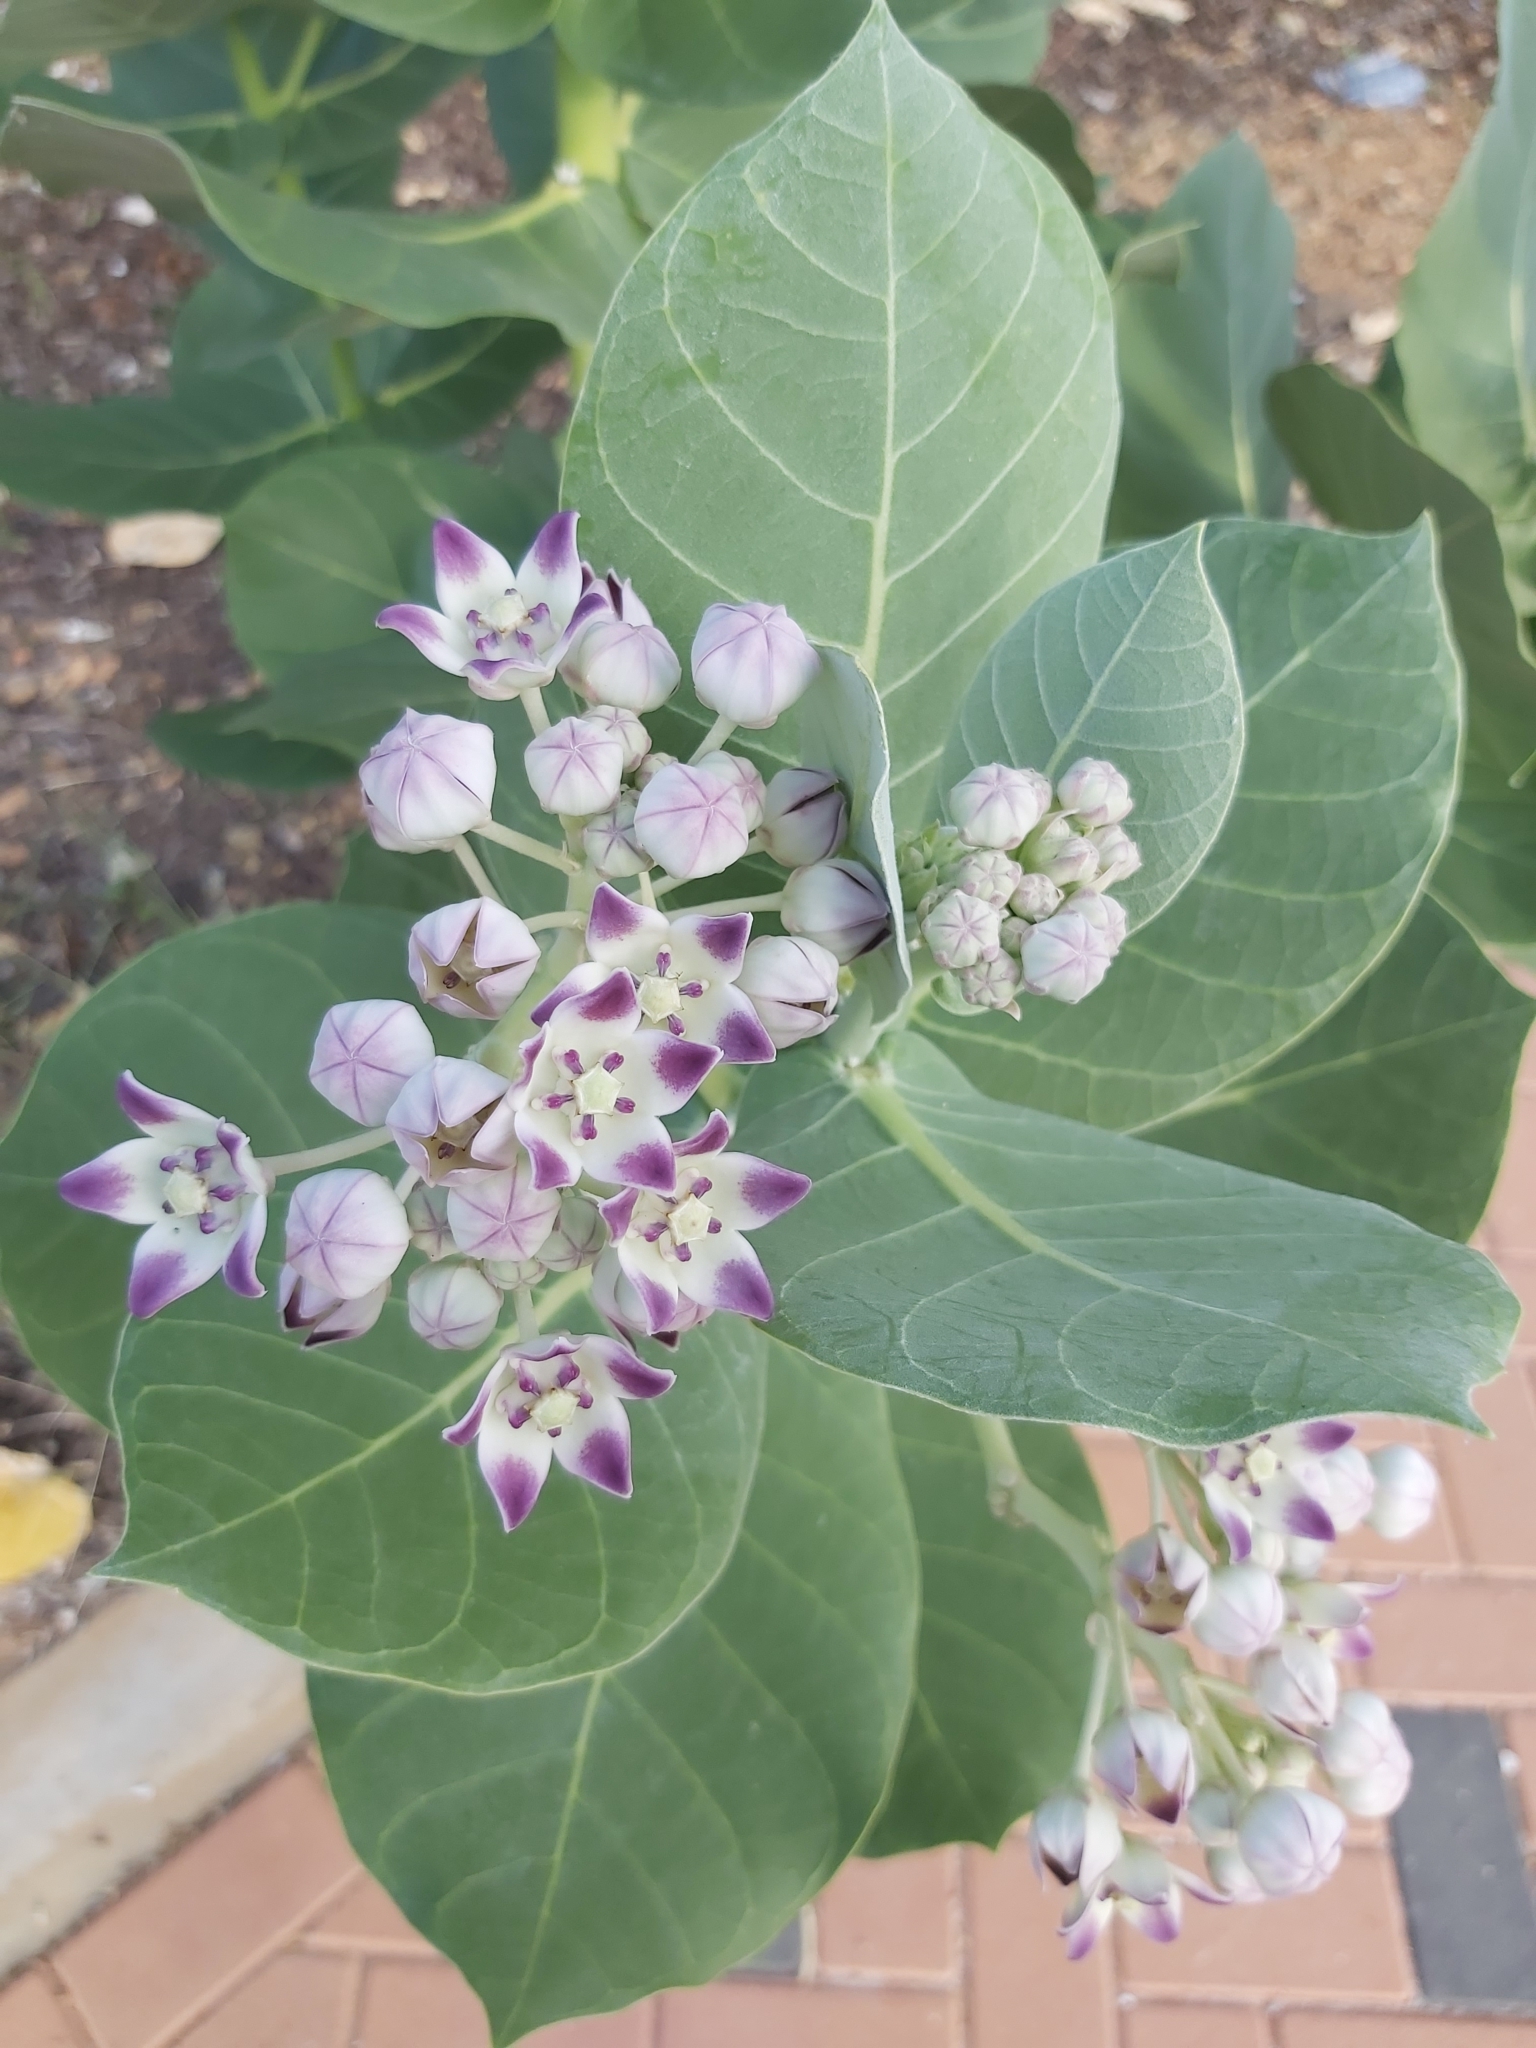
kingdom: Plantae
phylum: Tracheophyta
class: Magnoliopsida
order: Gentianales
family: Apocynaceae
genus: Calotropis
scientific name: Calotropis procera
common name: Roostertree
